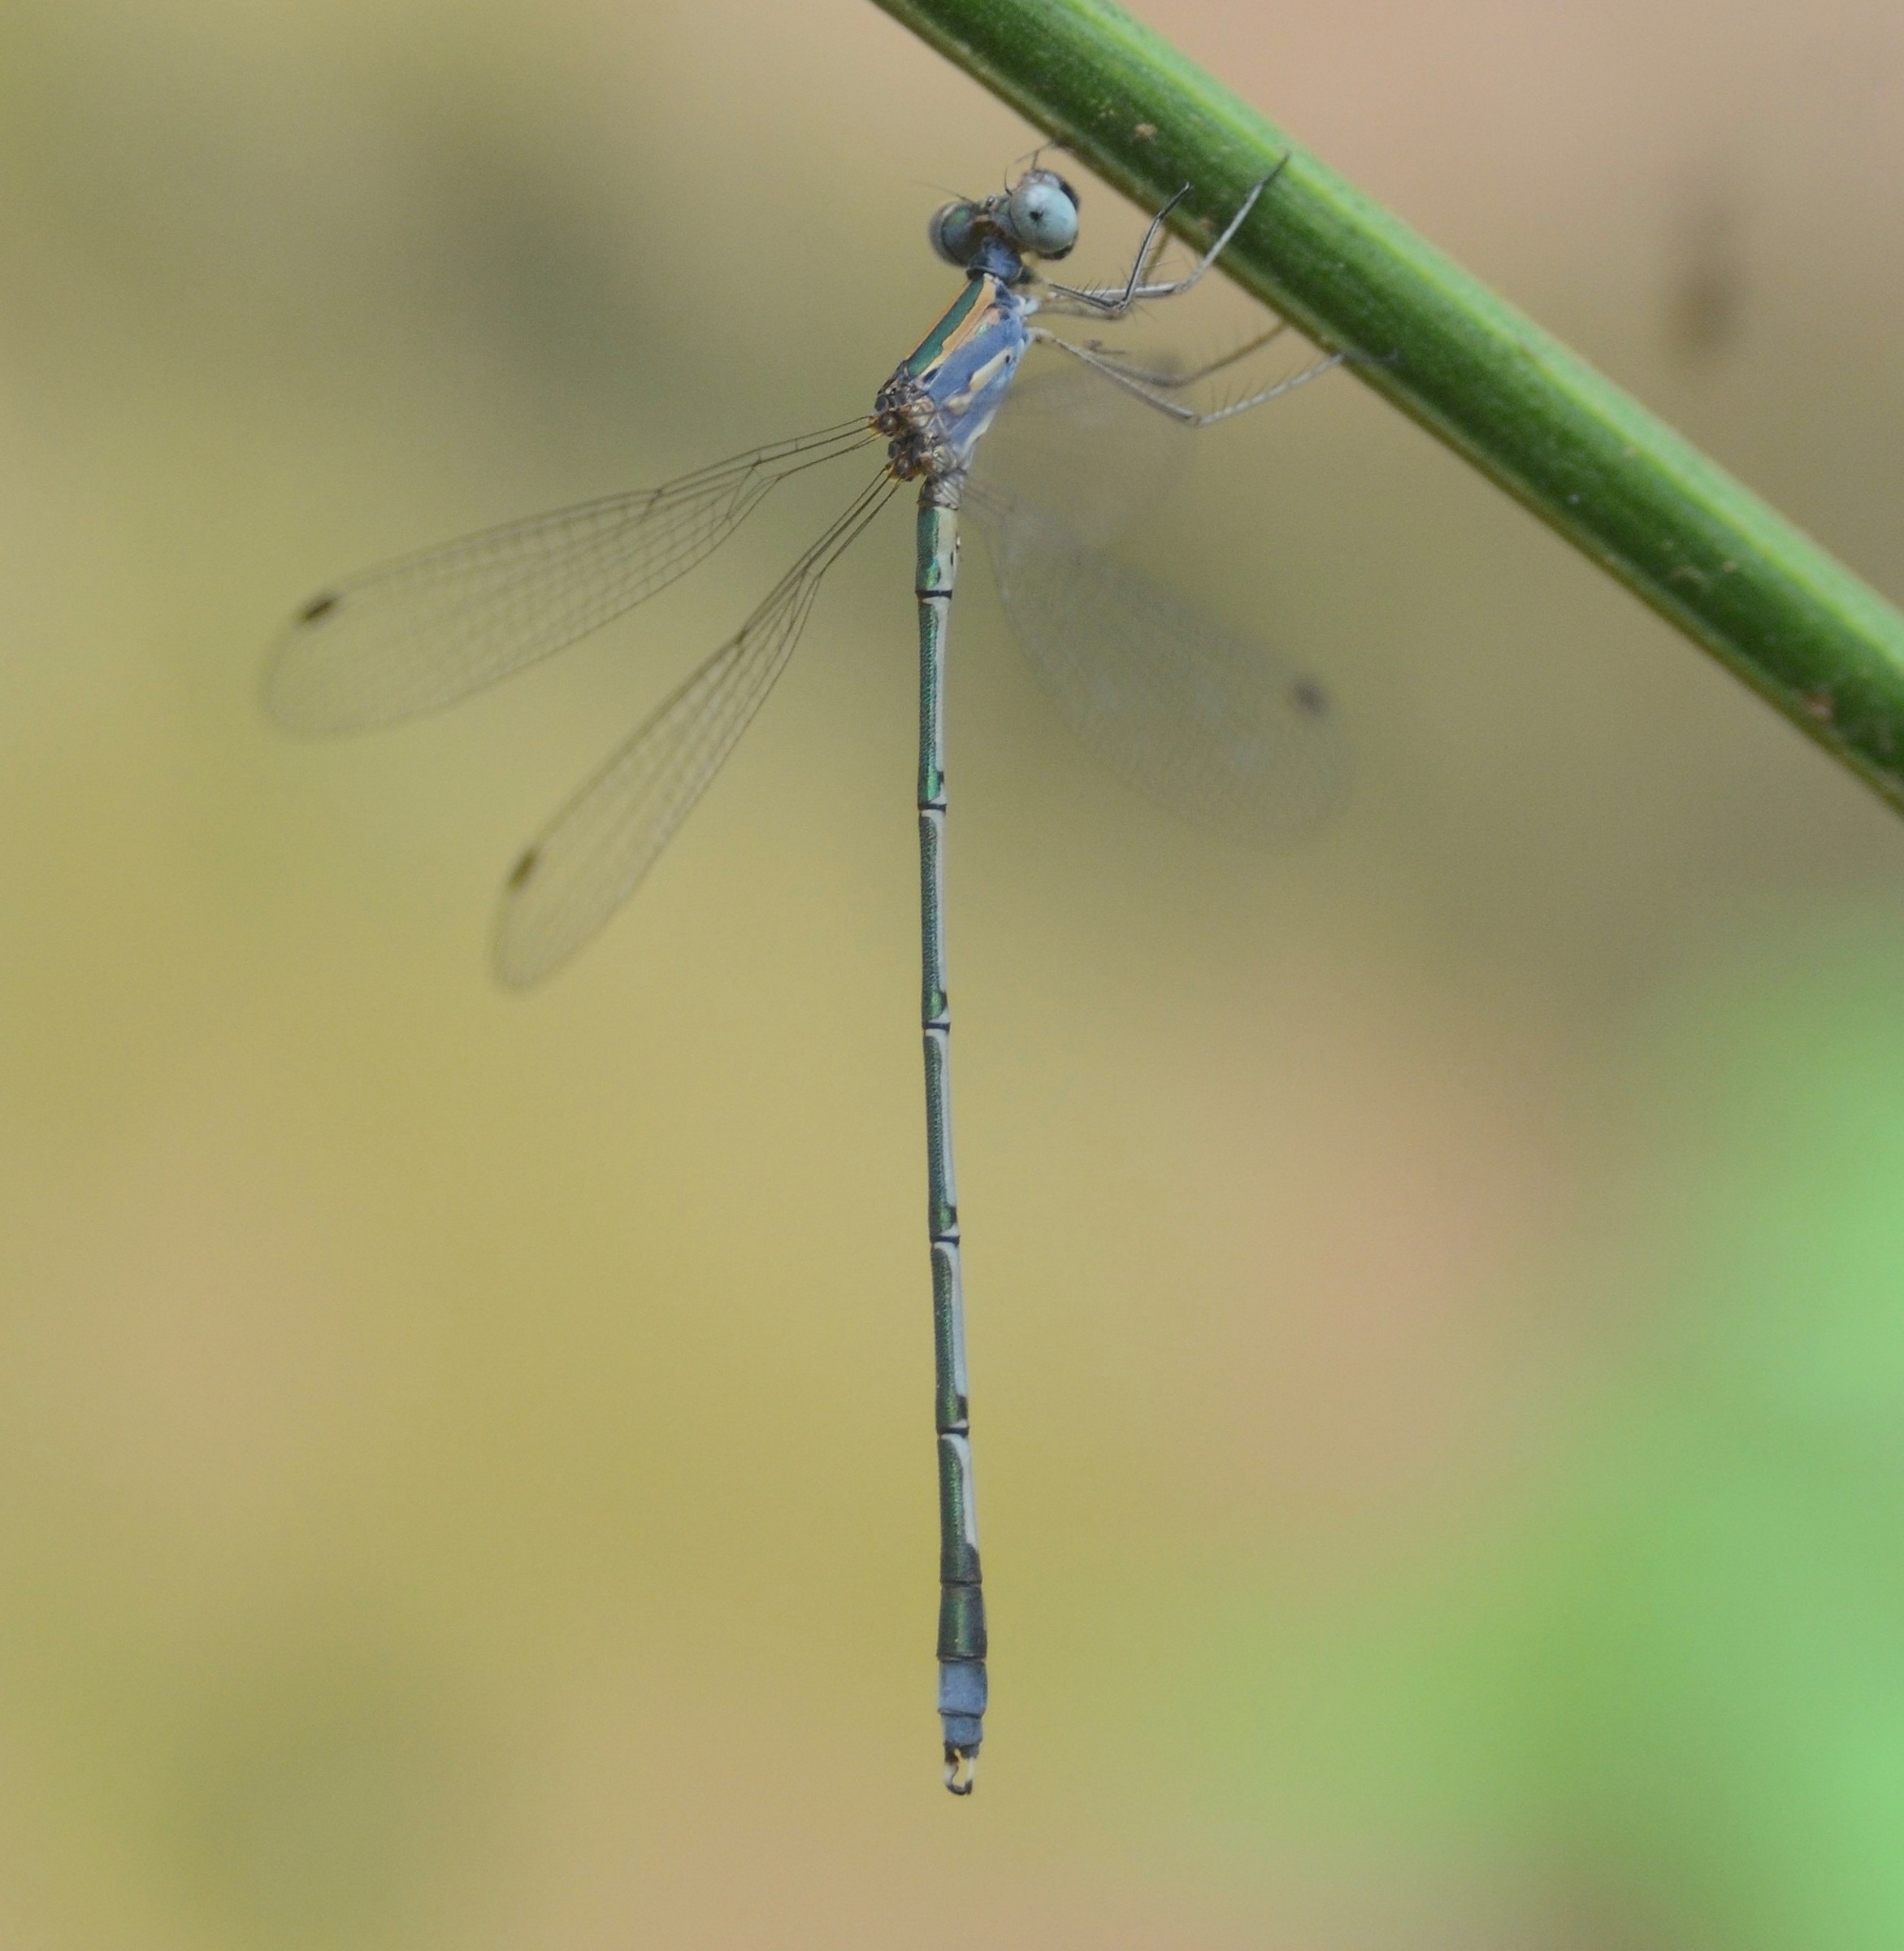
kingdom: Animalia
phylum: Arthropoda
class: Insecta
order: Odonata
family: Lestidae
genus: Lestes
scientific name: Lestes elatus
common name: Emerald spreadwing
